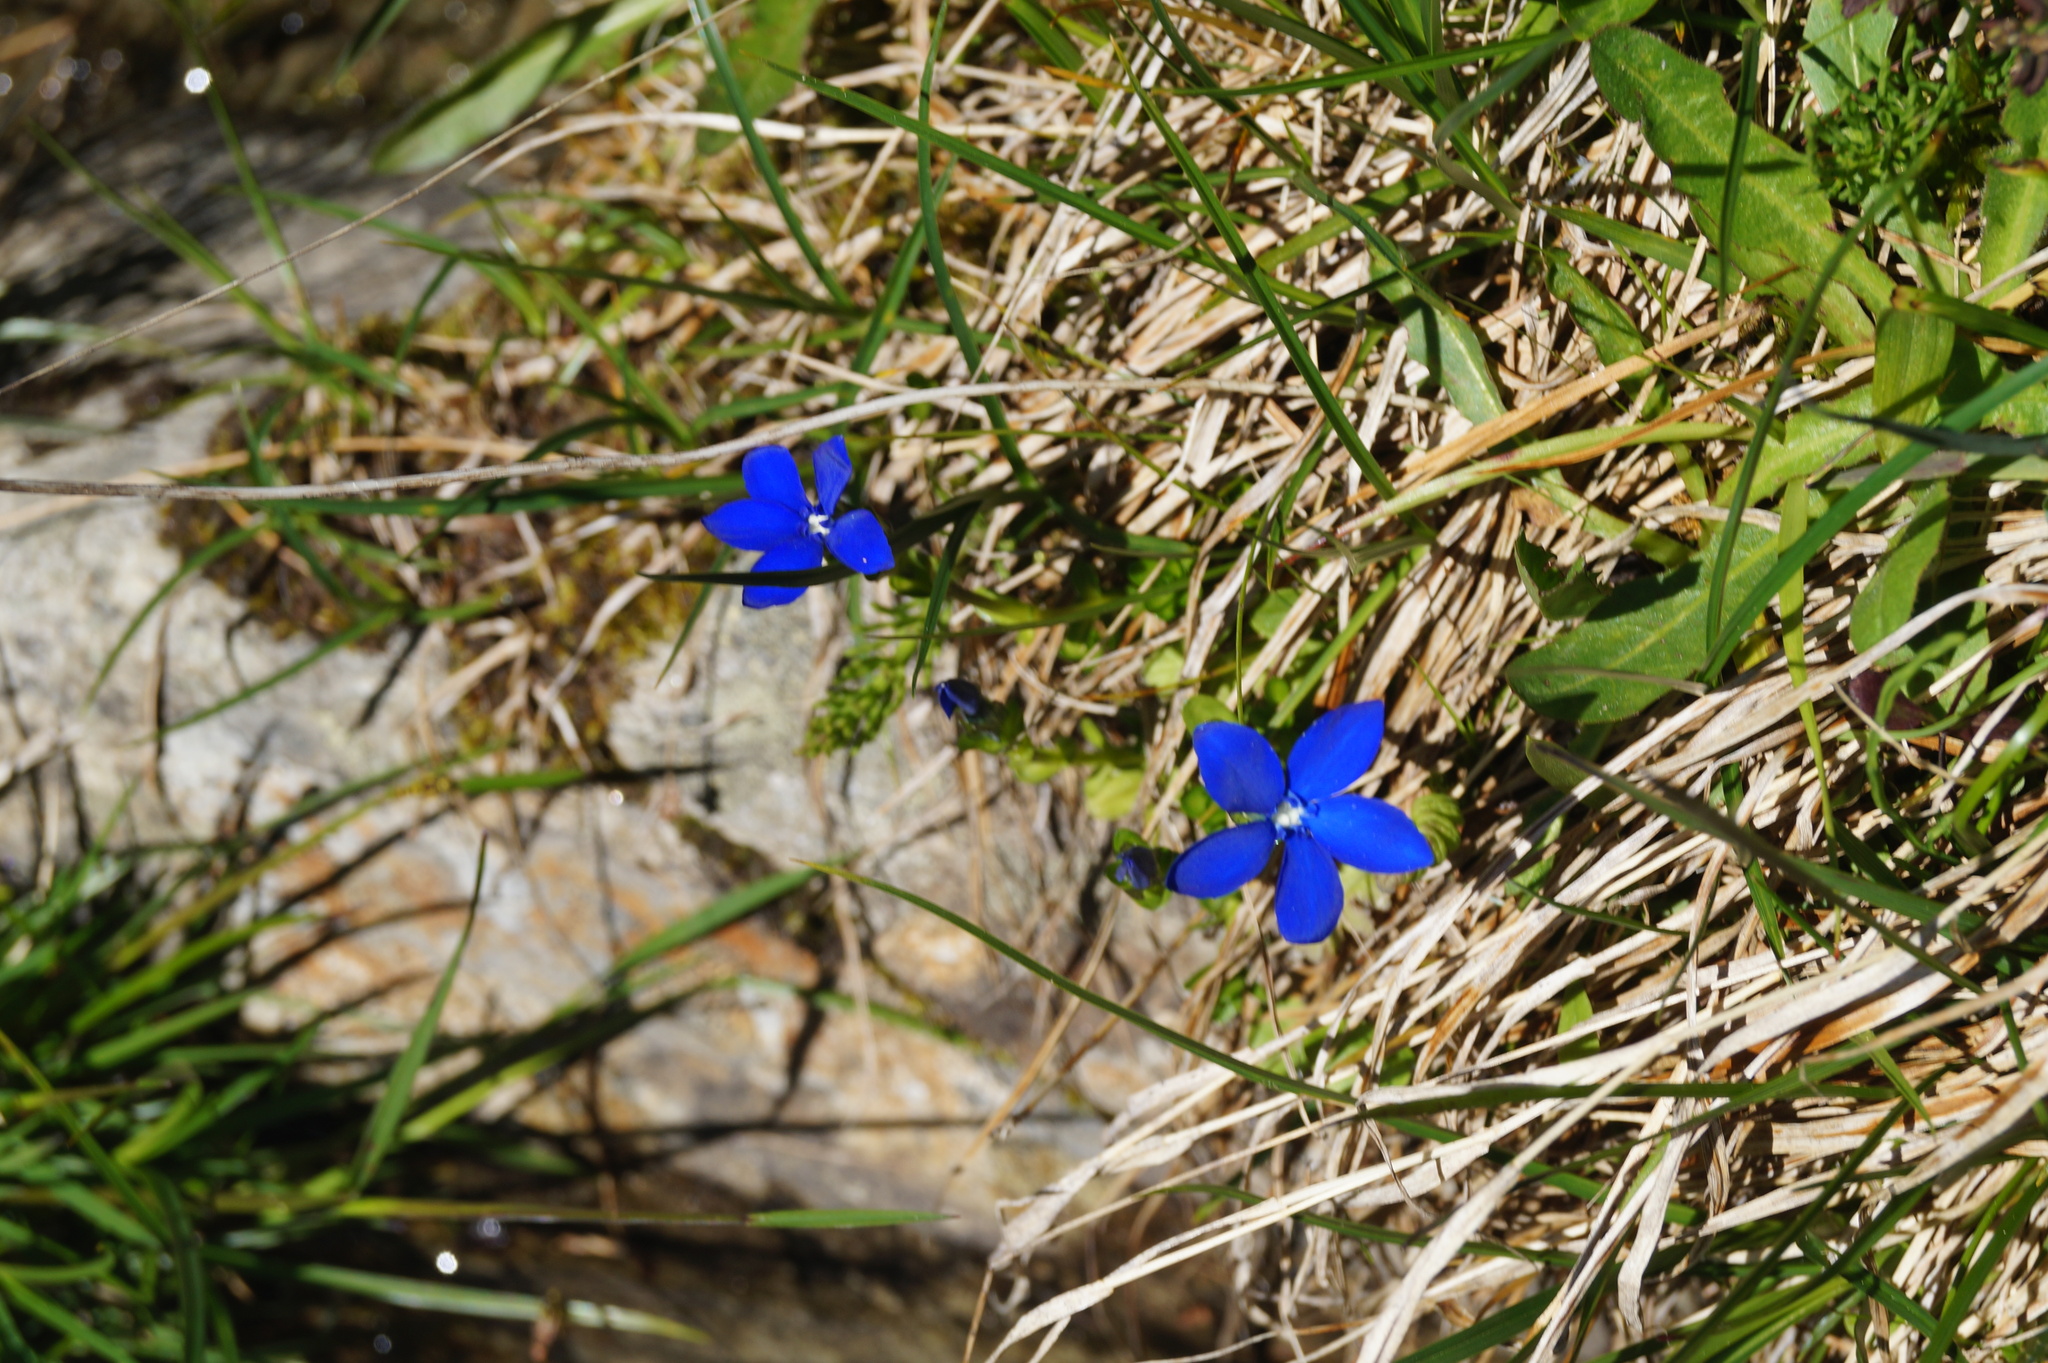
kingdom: Plantae
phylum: Tracheophyta
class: Magnoliopsida
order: Gentianales
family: Gentianaceae
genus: Gentiana
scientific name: Gentiana bavarica
